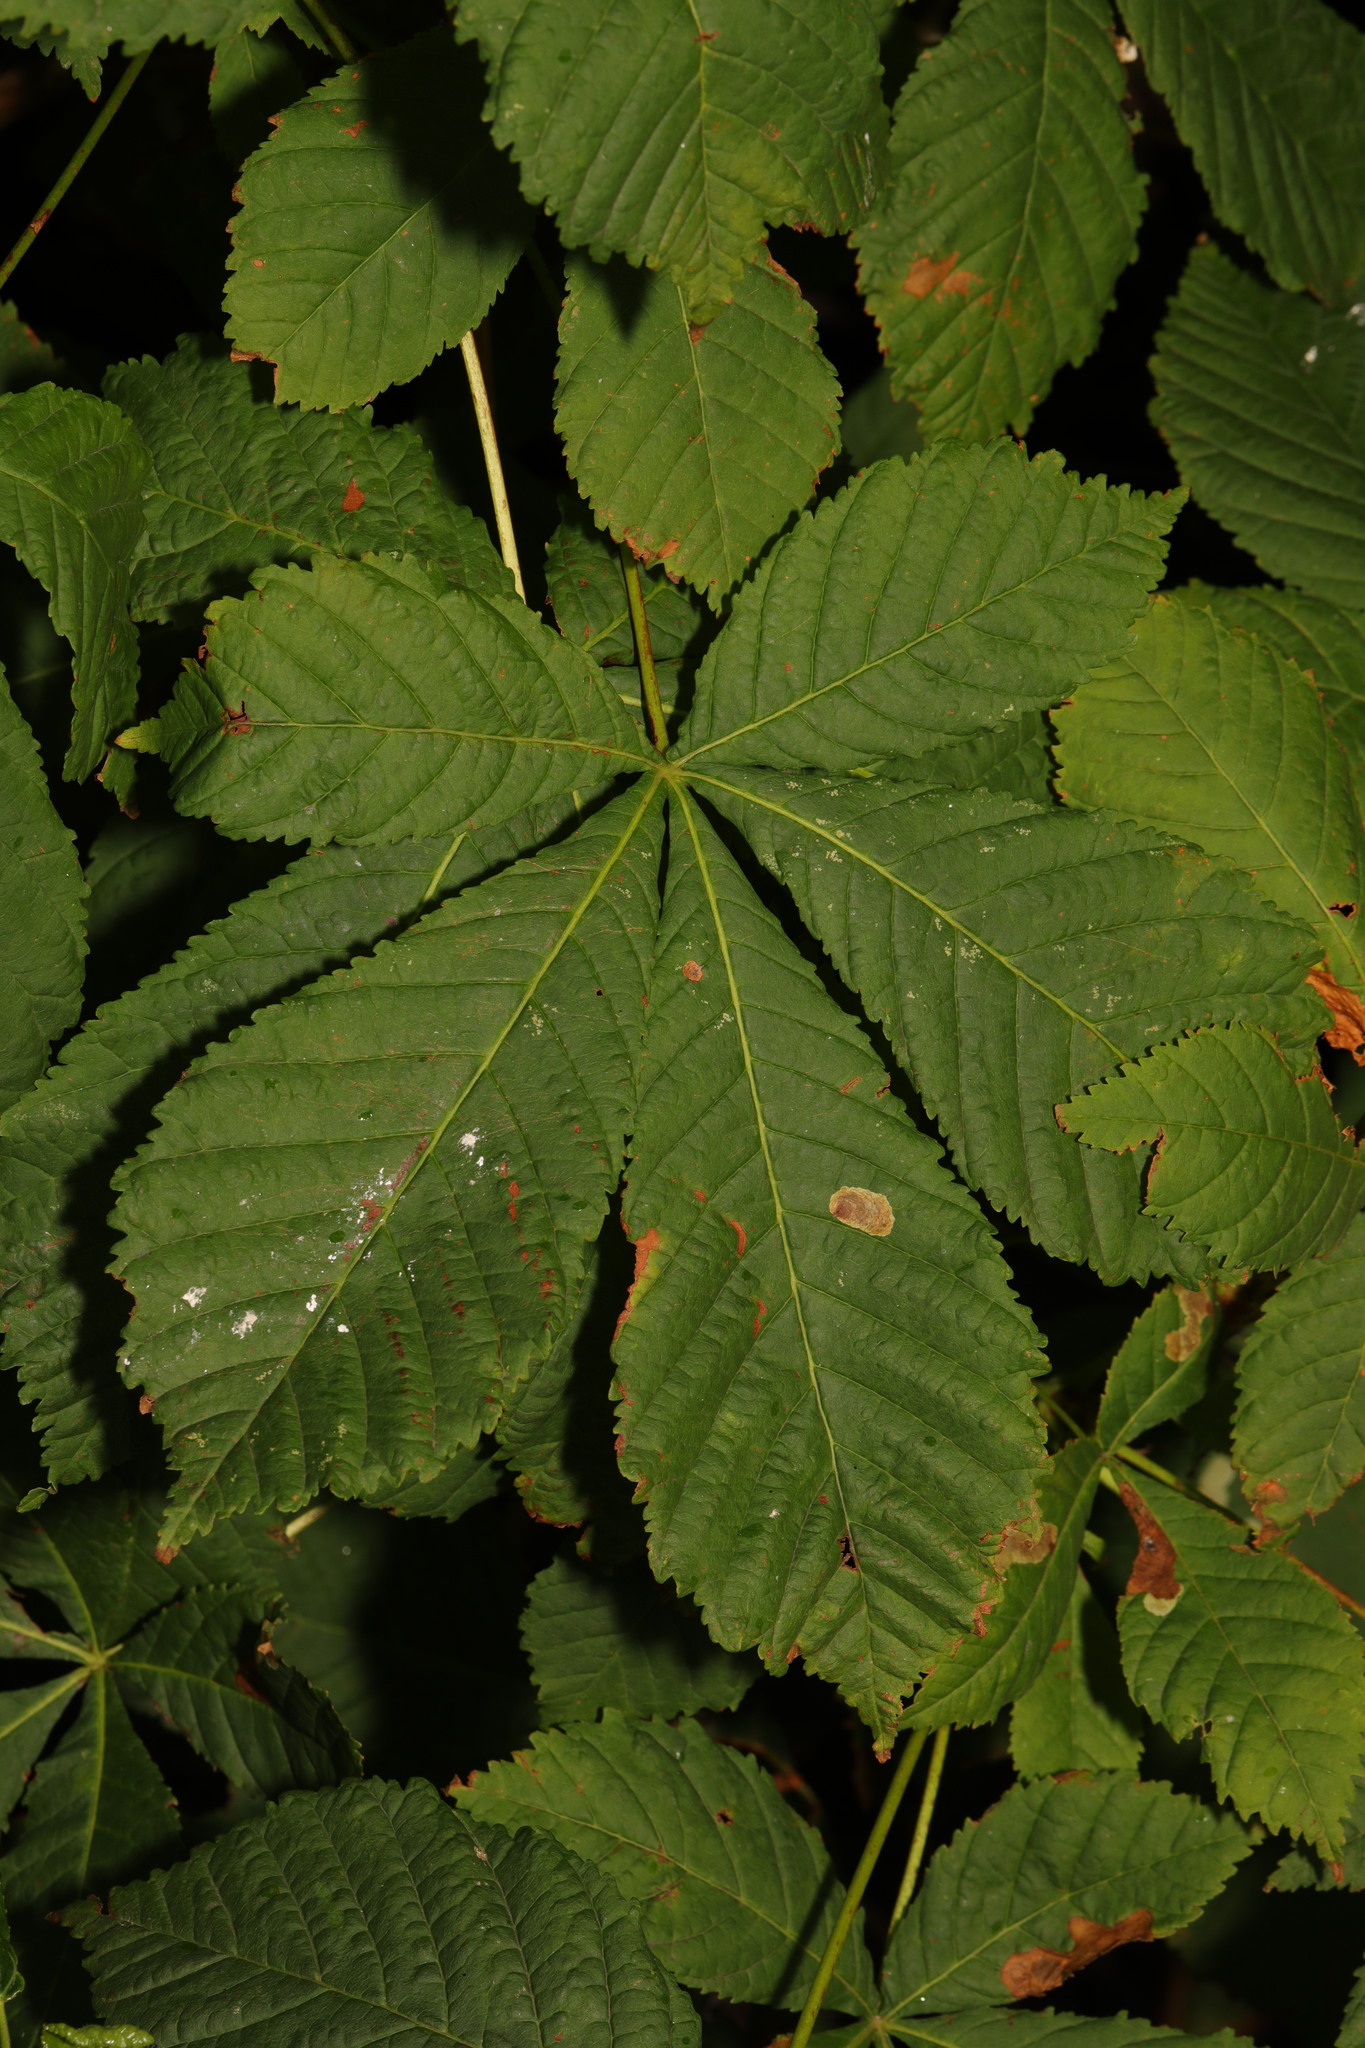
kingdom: Plantae
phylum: Tracheophyta
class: Magnoliopsida
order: Sapindales
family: Sapindaceae
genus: Aesculus
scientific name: Aesculus hippocastanum
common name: Horse-chestnut
